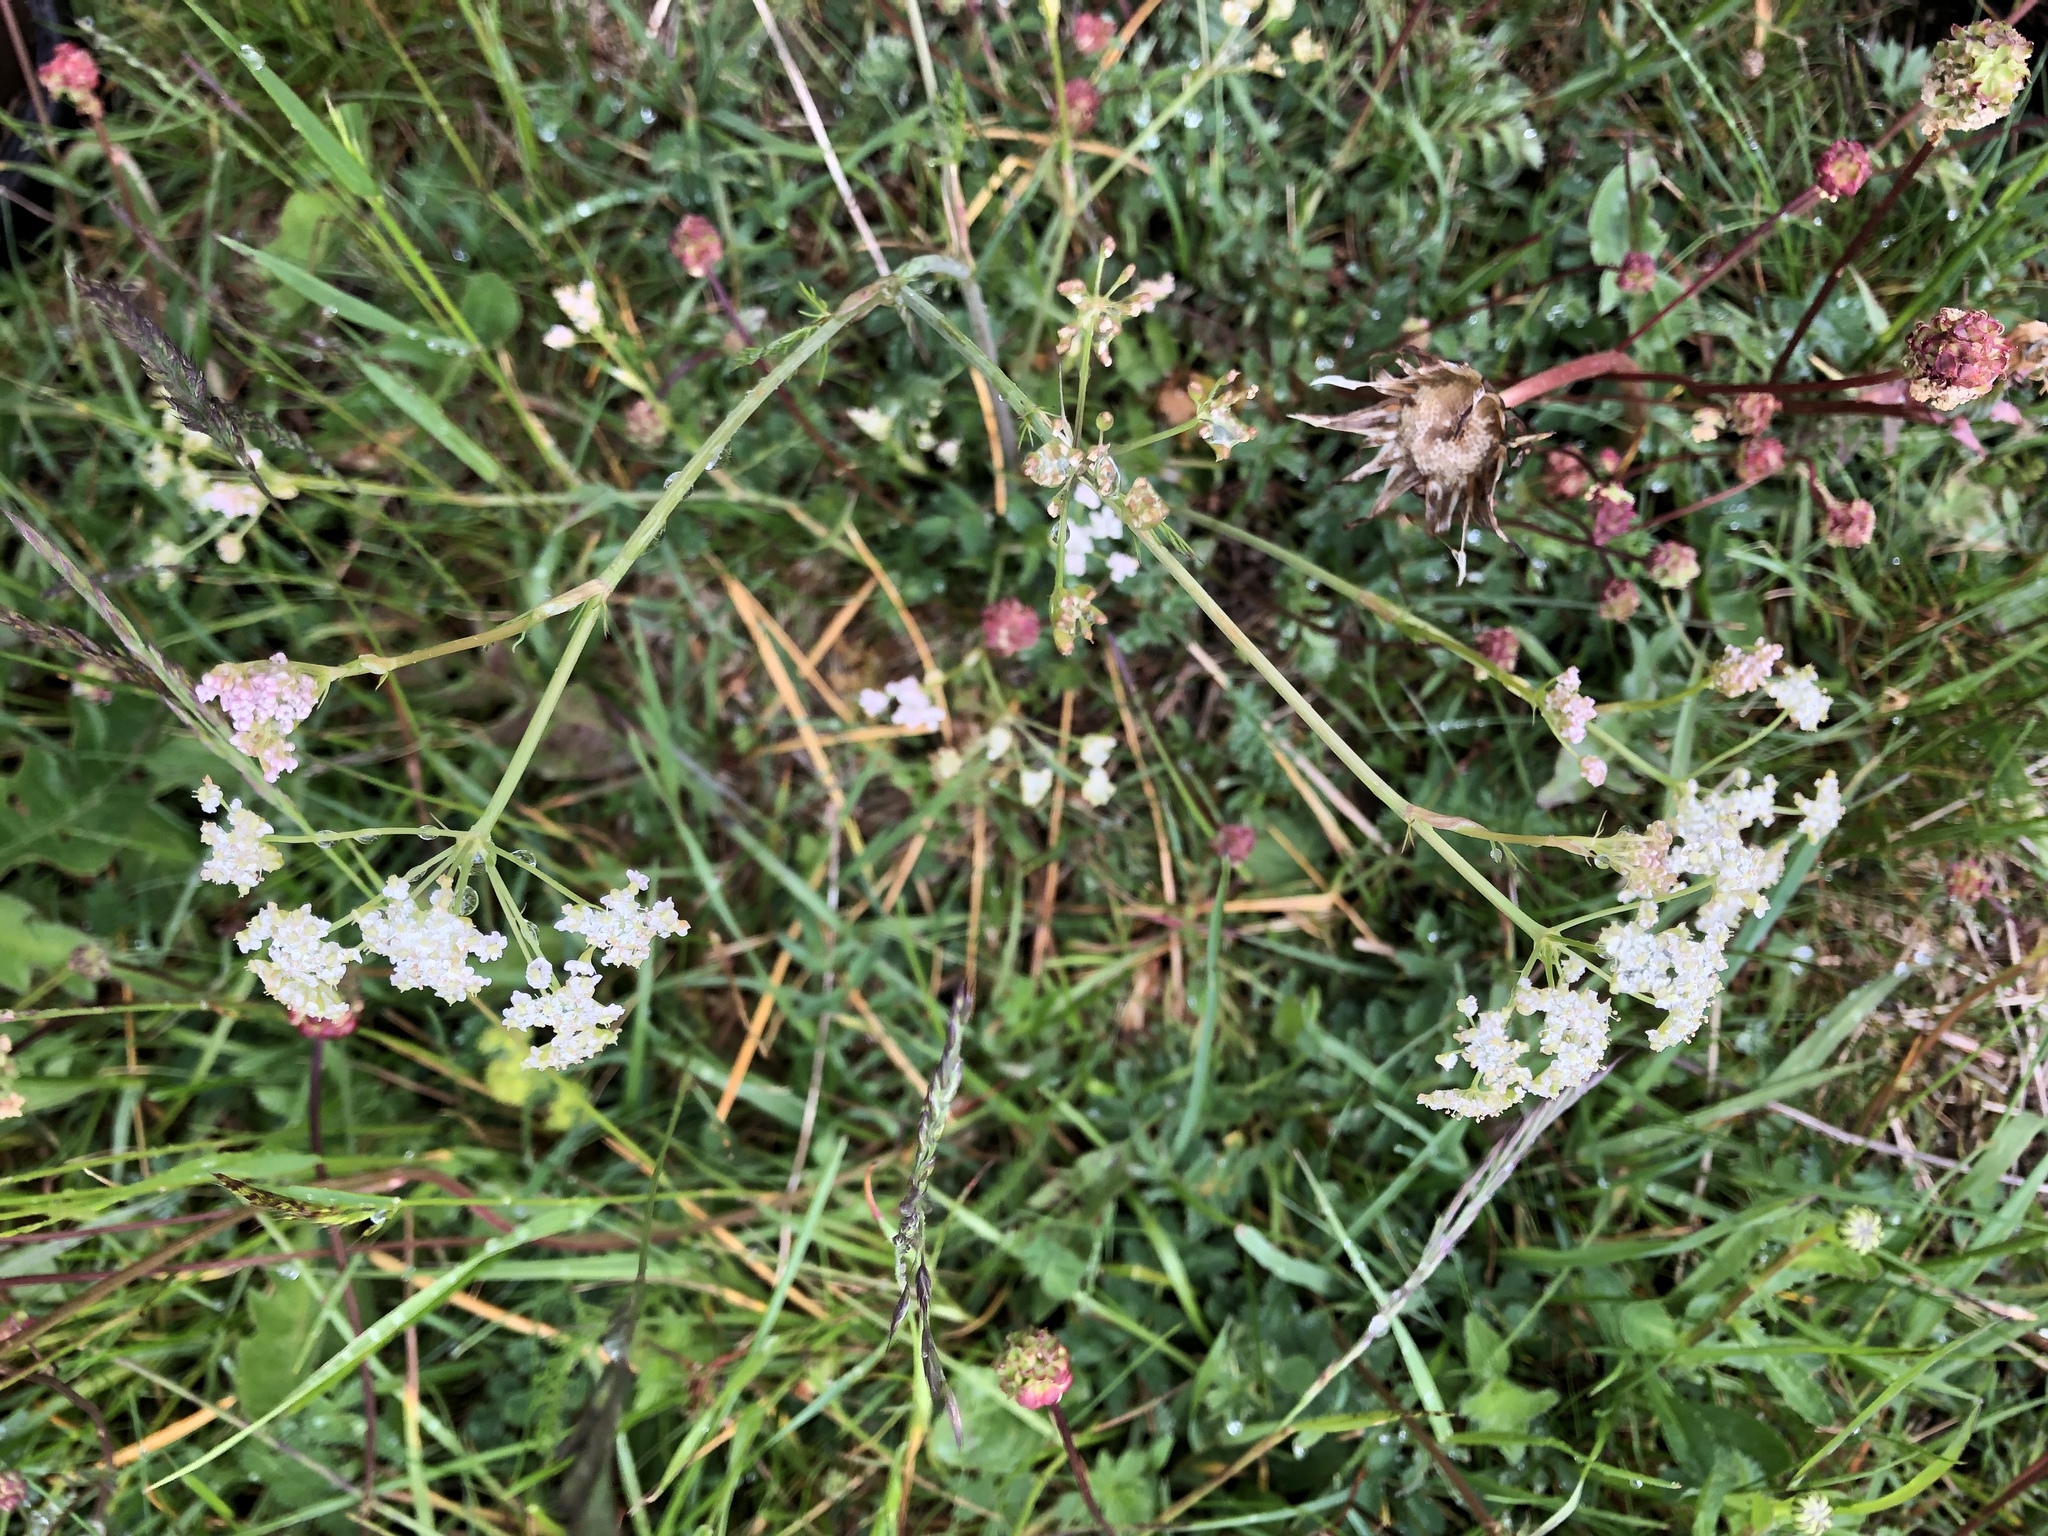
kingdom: Plantae
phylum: Tracheophyta
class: Magnoliopsida
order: Apiales
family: Apiaceae
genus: Carum
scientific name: Carum carvi
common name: Caraway
